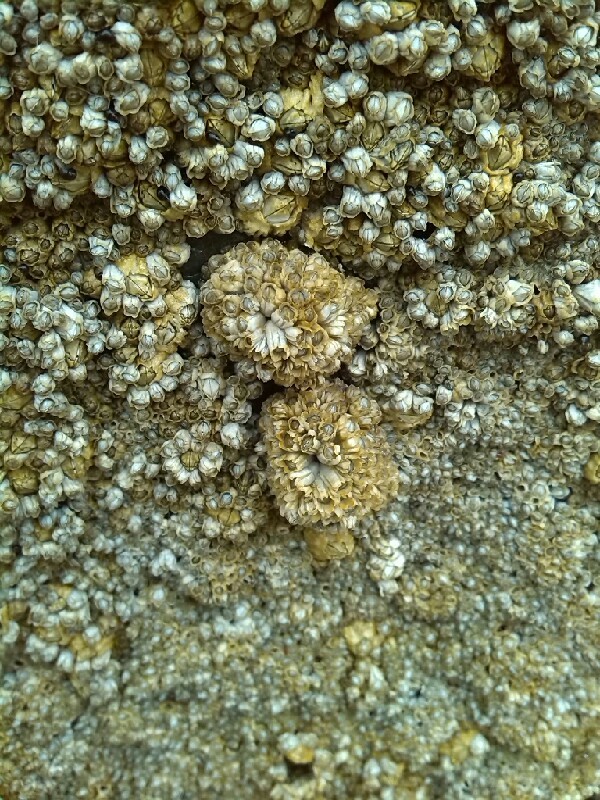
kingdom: Animalia
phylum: Arthropoda
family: Elminiidae
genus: Austrominius
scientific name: Austrominius modestus
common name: Australasian barnacle
